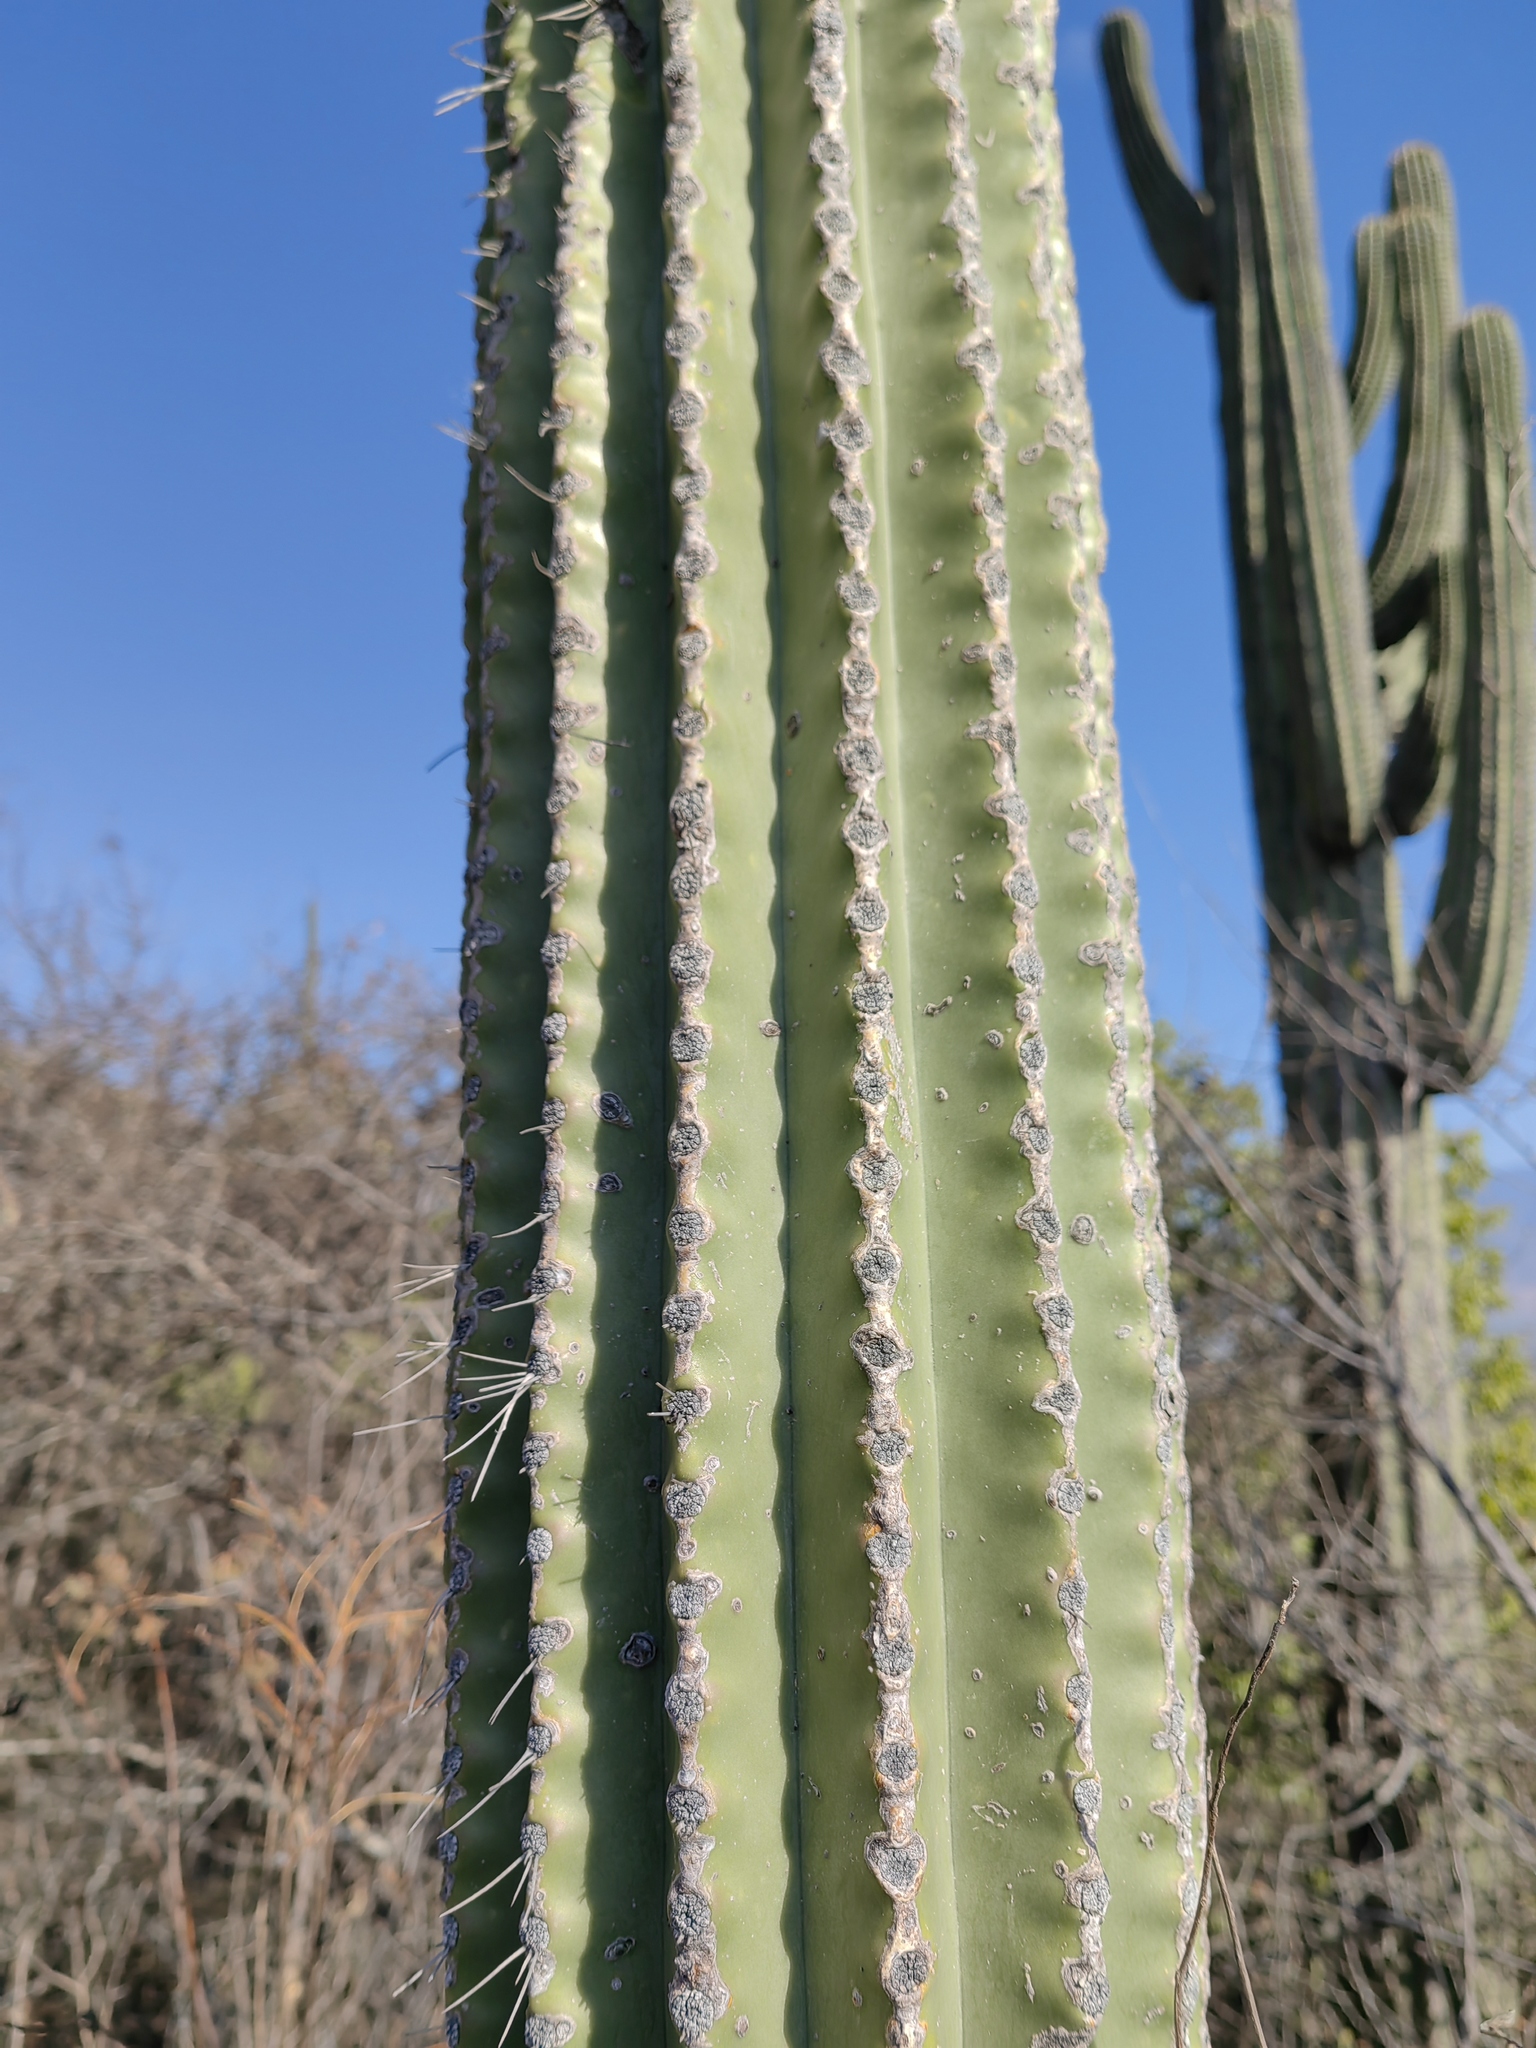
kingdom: Plantae
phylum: Tracheophyta
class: Magnoliopsida
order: Caryophyllales
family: Cactaceae
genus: Cephalocereus
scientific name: Cephalocereus nudus
